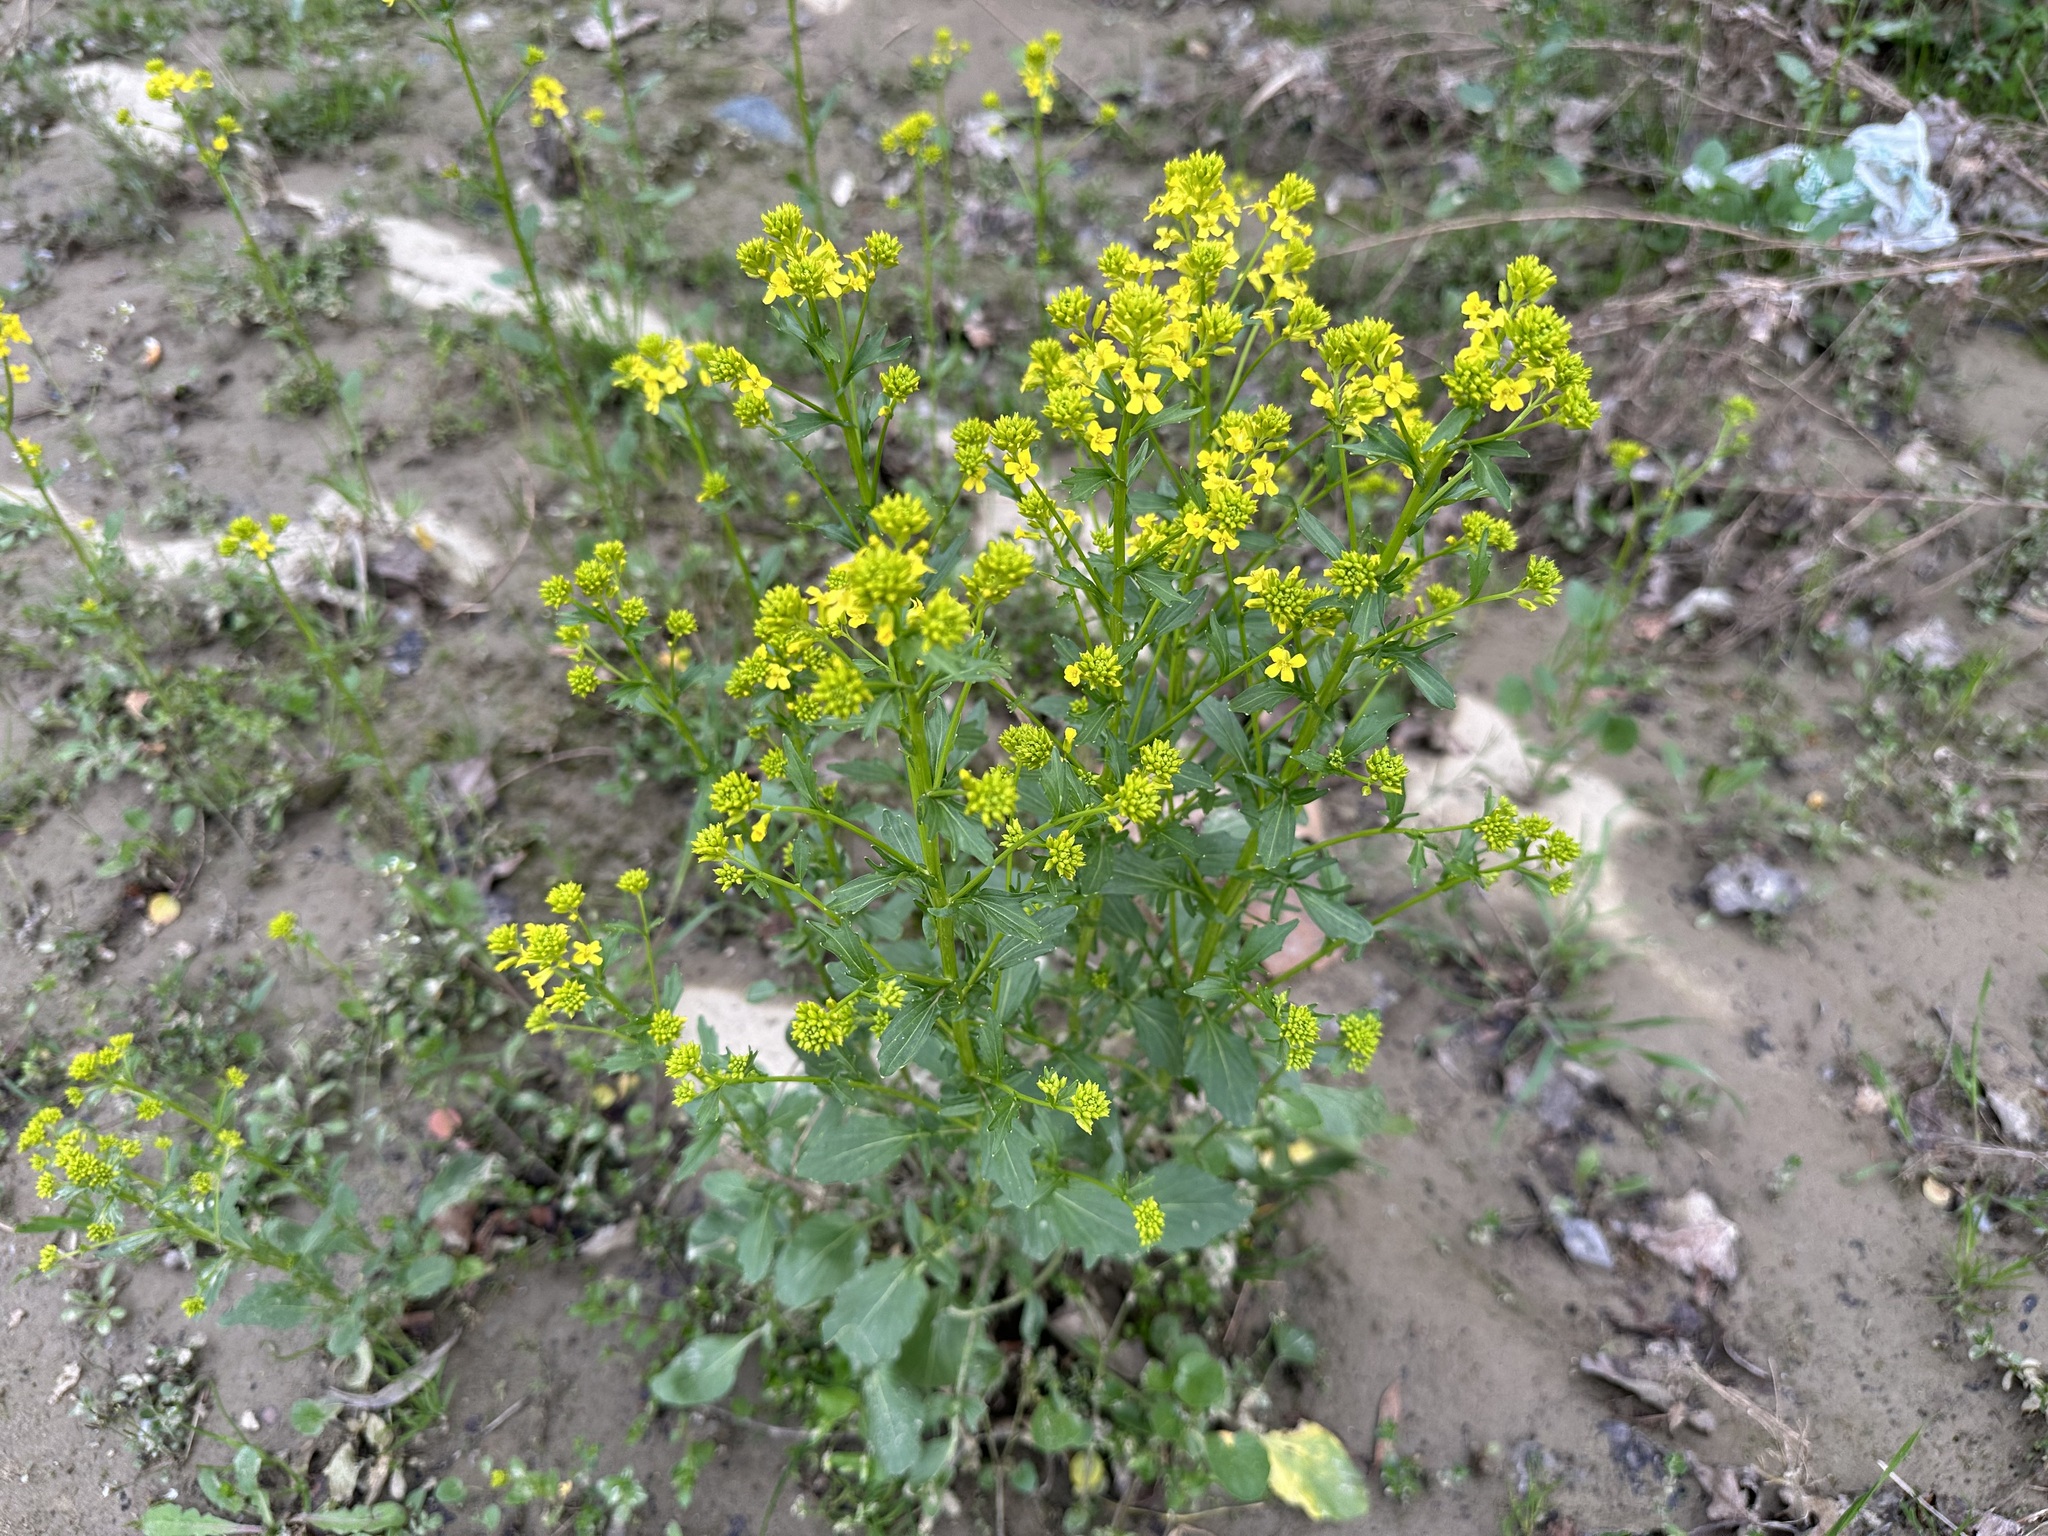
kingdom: Plantae
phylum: Tracheophyta
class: Magnoliopsida
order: Brassicales
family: Brassicaceae
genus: Barbarea
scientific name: Barbarea vulgaris
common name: Cressy-greens
